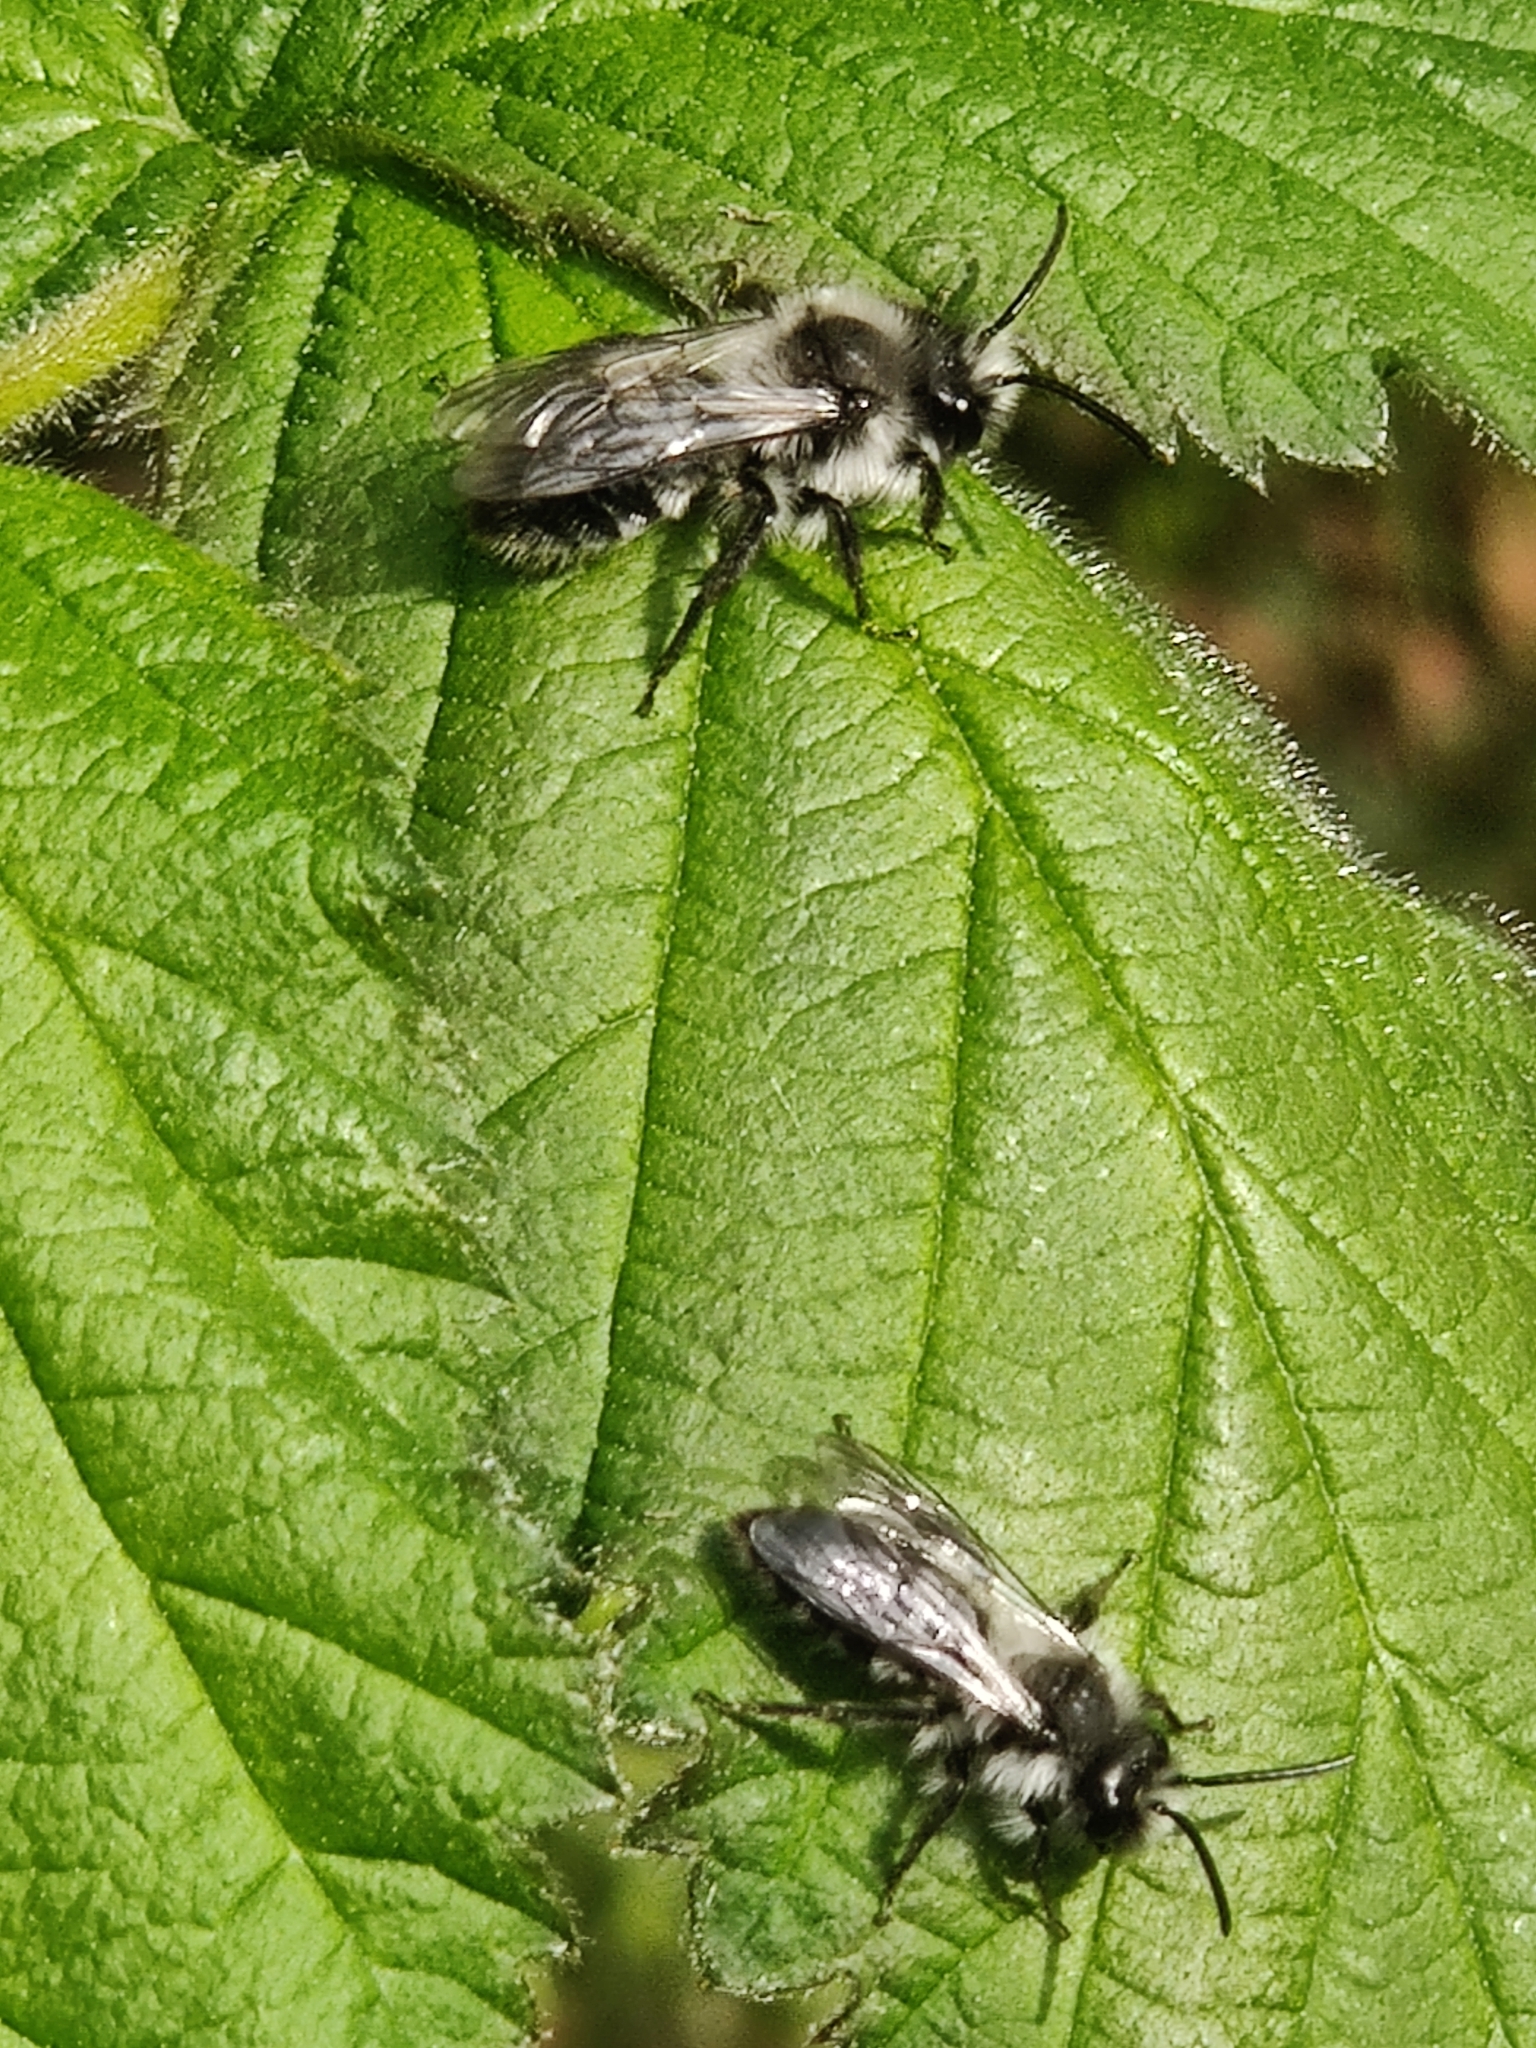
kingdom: Animalia
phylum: Arthropoda
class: Insecta
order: Hymenoptera
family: Andrenidae
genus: Andrena
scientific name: Andrena cineraria
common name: Ashy mining bee
